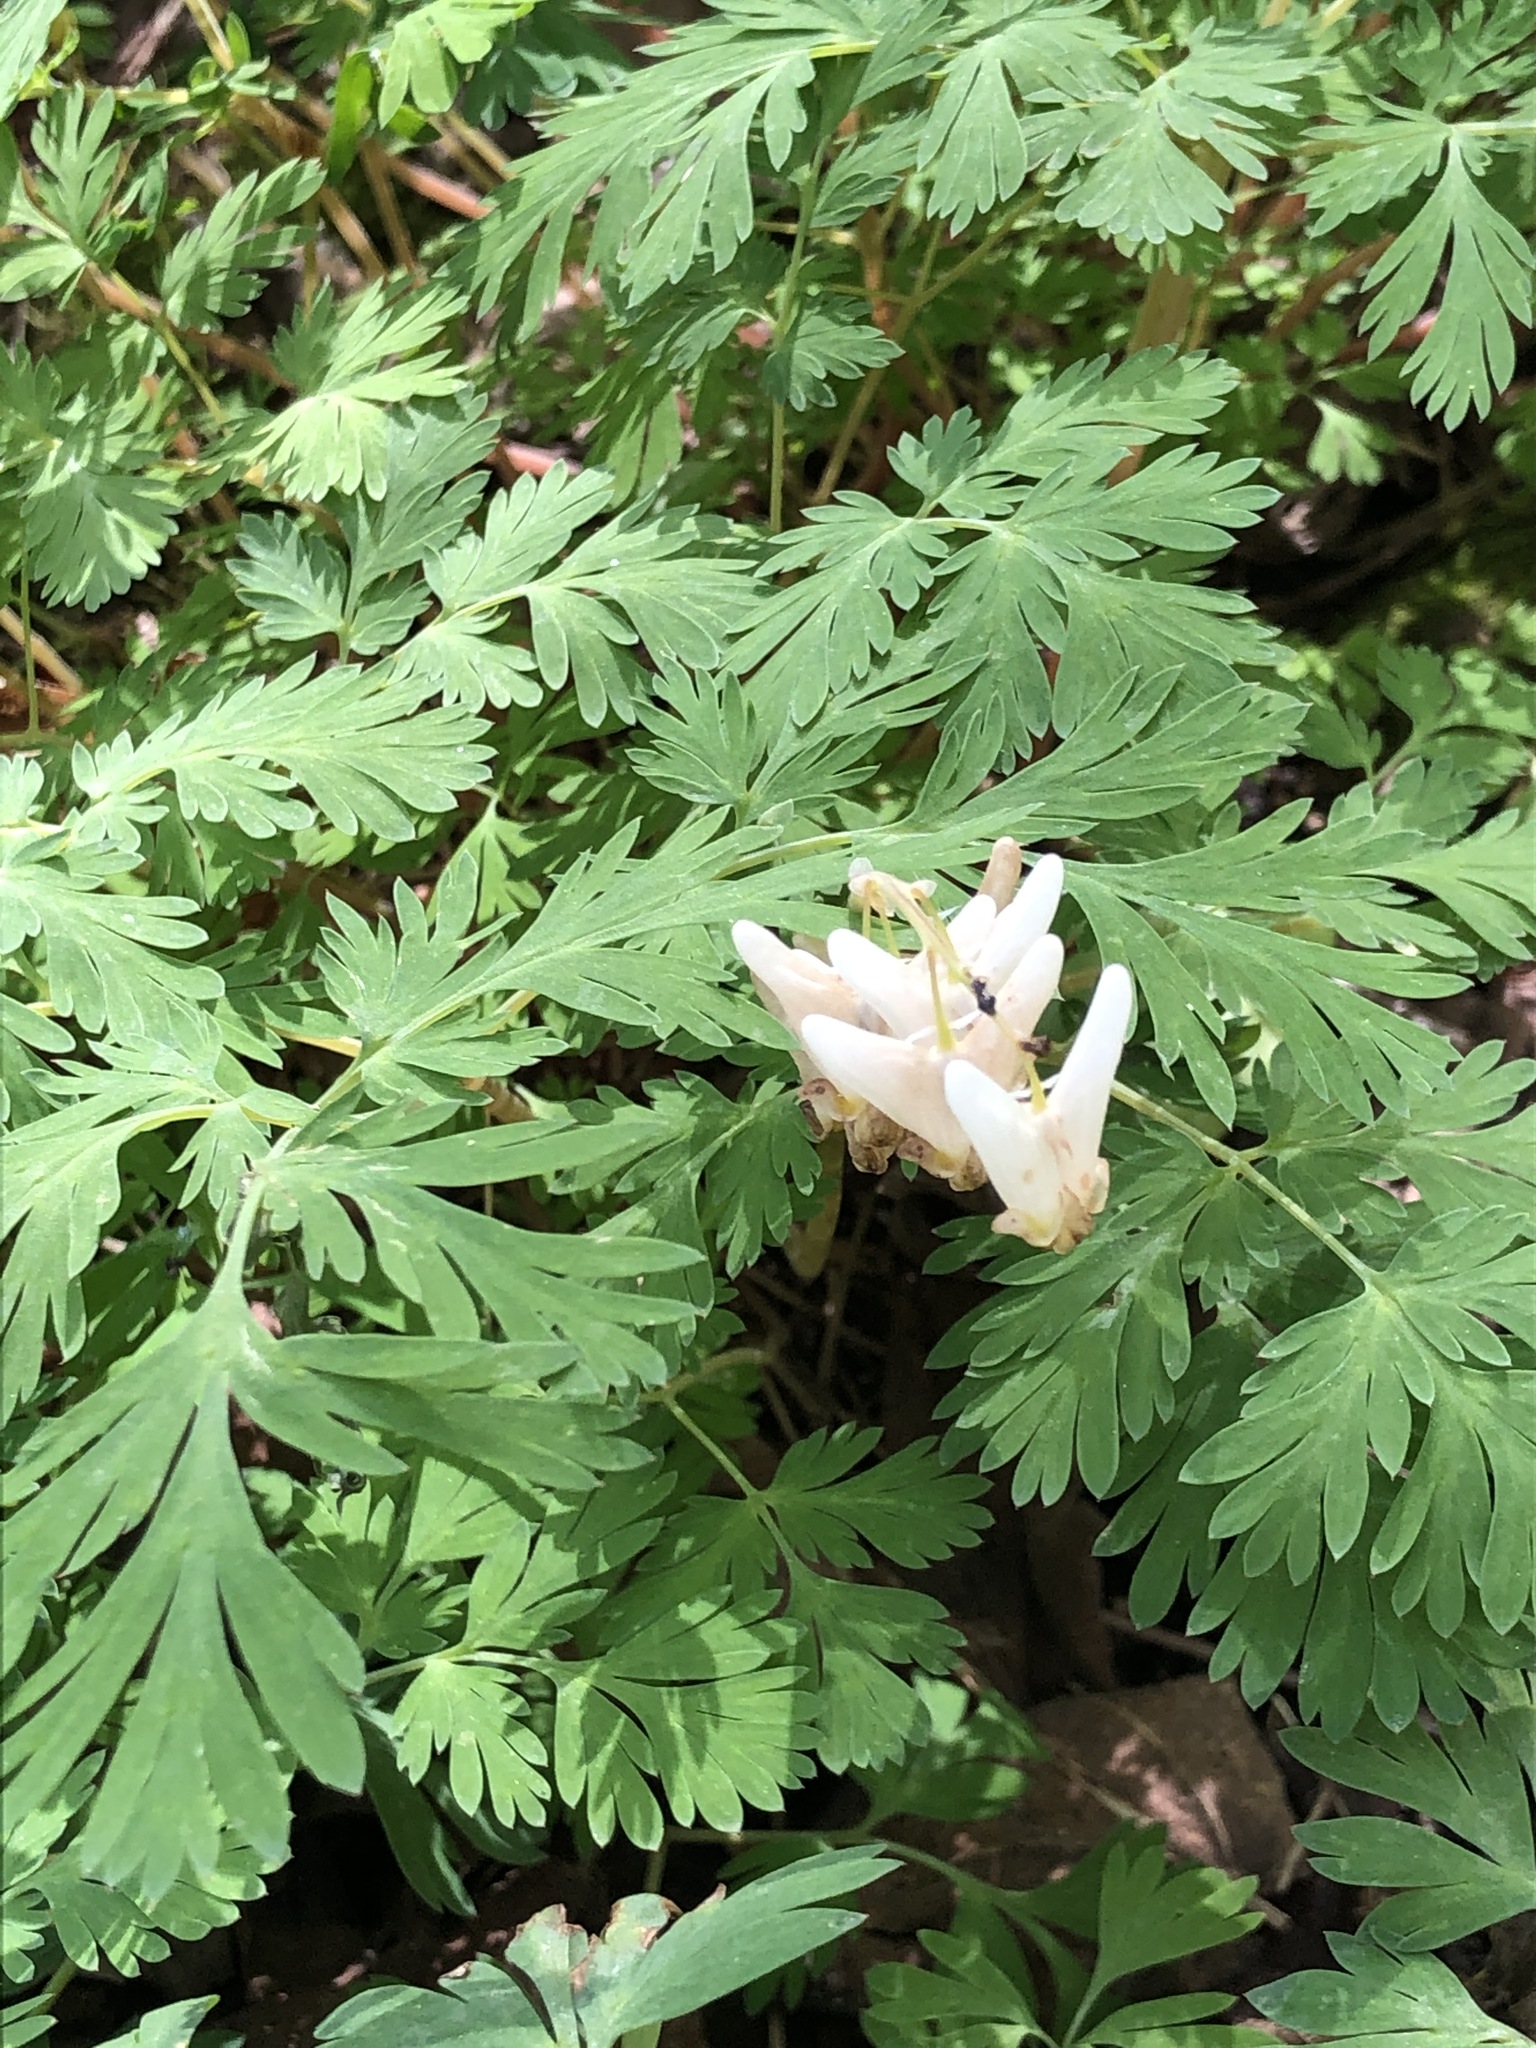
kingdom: Plantae
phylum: Tracheophyta
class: Magnoliopsida
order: Ranunculales
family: Papaveraceae
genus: Dicentra
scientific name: Dicentra cucullaria
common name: Dutchman's breeches
